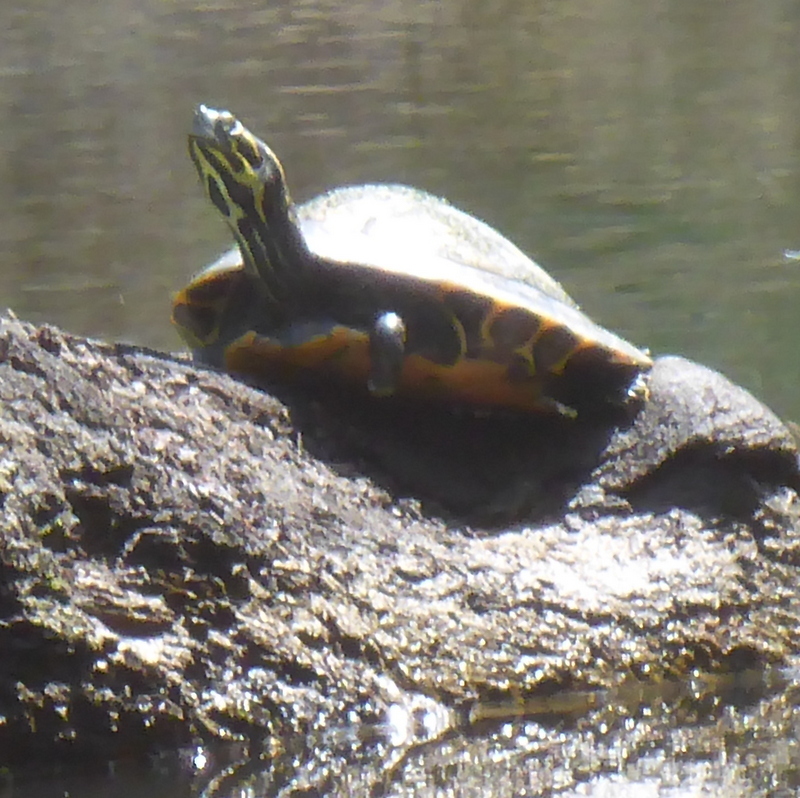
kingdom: Animalia
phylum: Chordata
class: Testudines
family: Emydidae
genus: Pseudemys
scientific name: Pseudemys concinna
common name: Eastern river cooter
